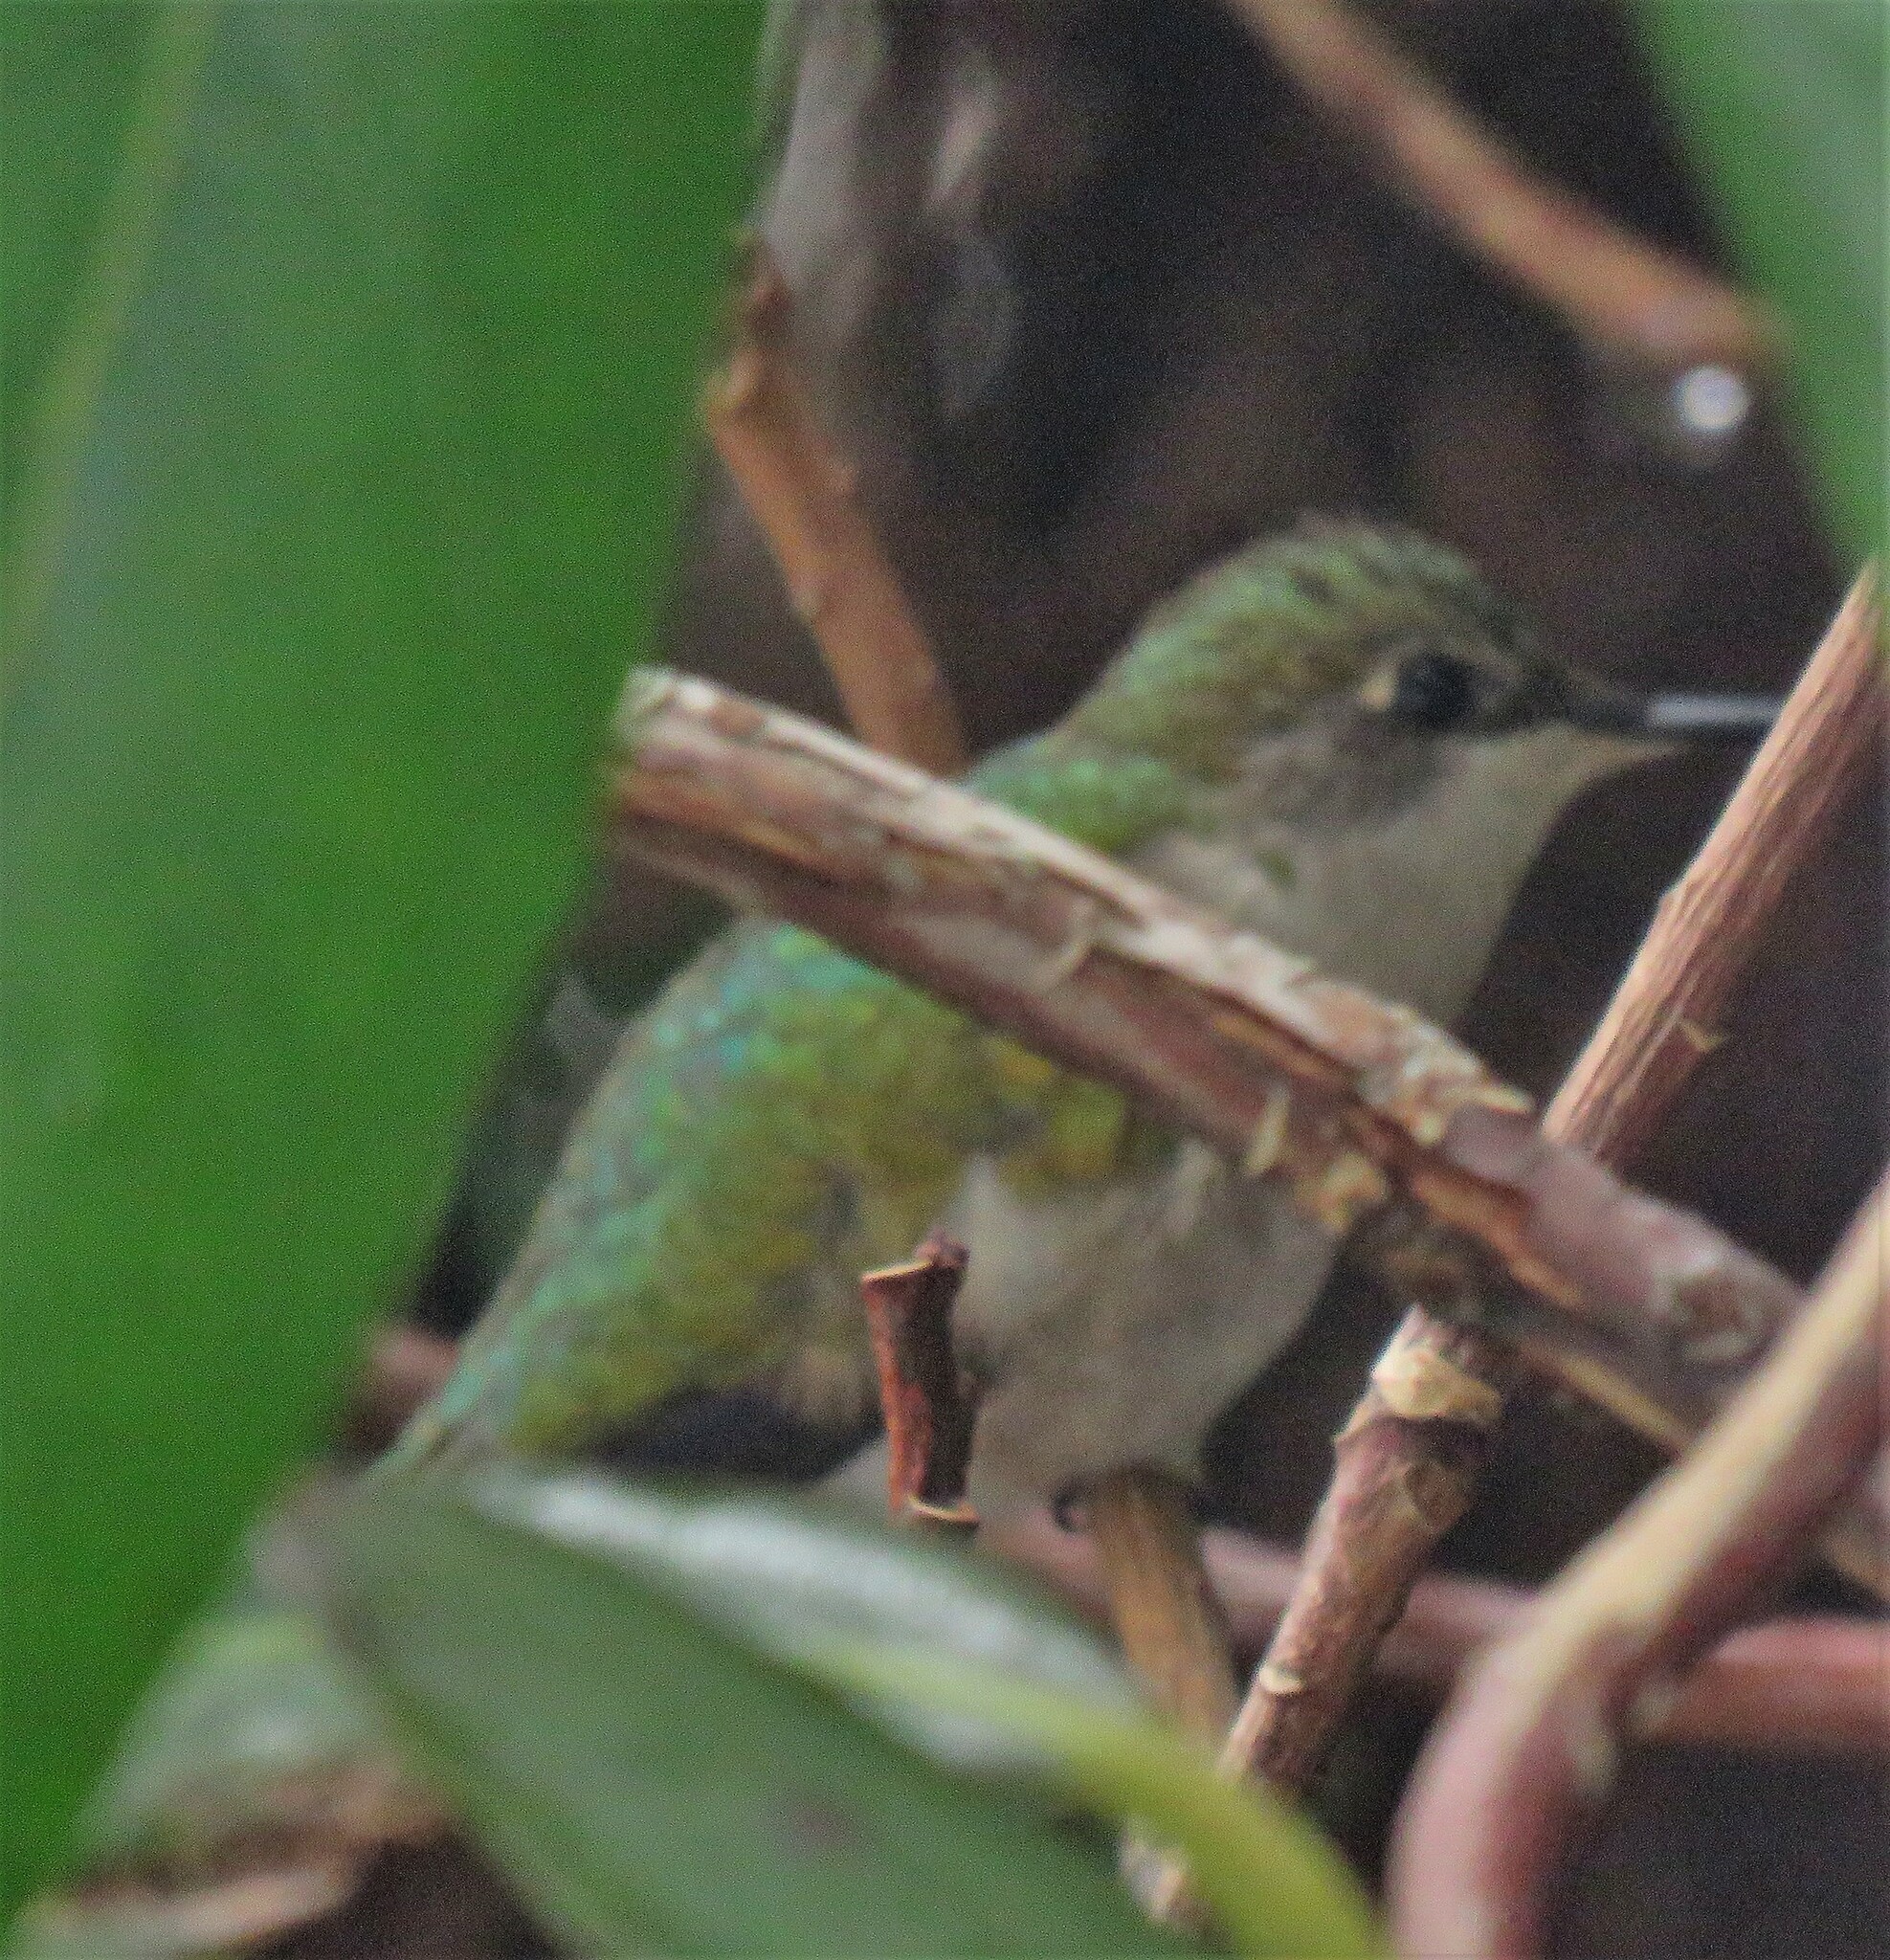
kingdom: Animalia
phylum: Chordata
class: Aves
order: Apodiformes
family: Trochilidae
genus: Archilochus
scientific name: Archilochus colubris
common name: Ruby-throated hummingbird
